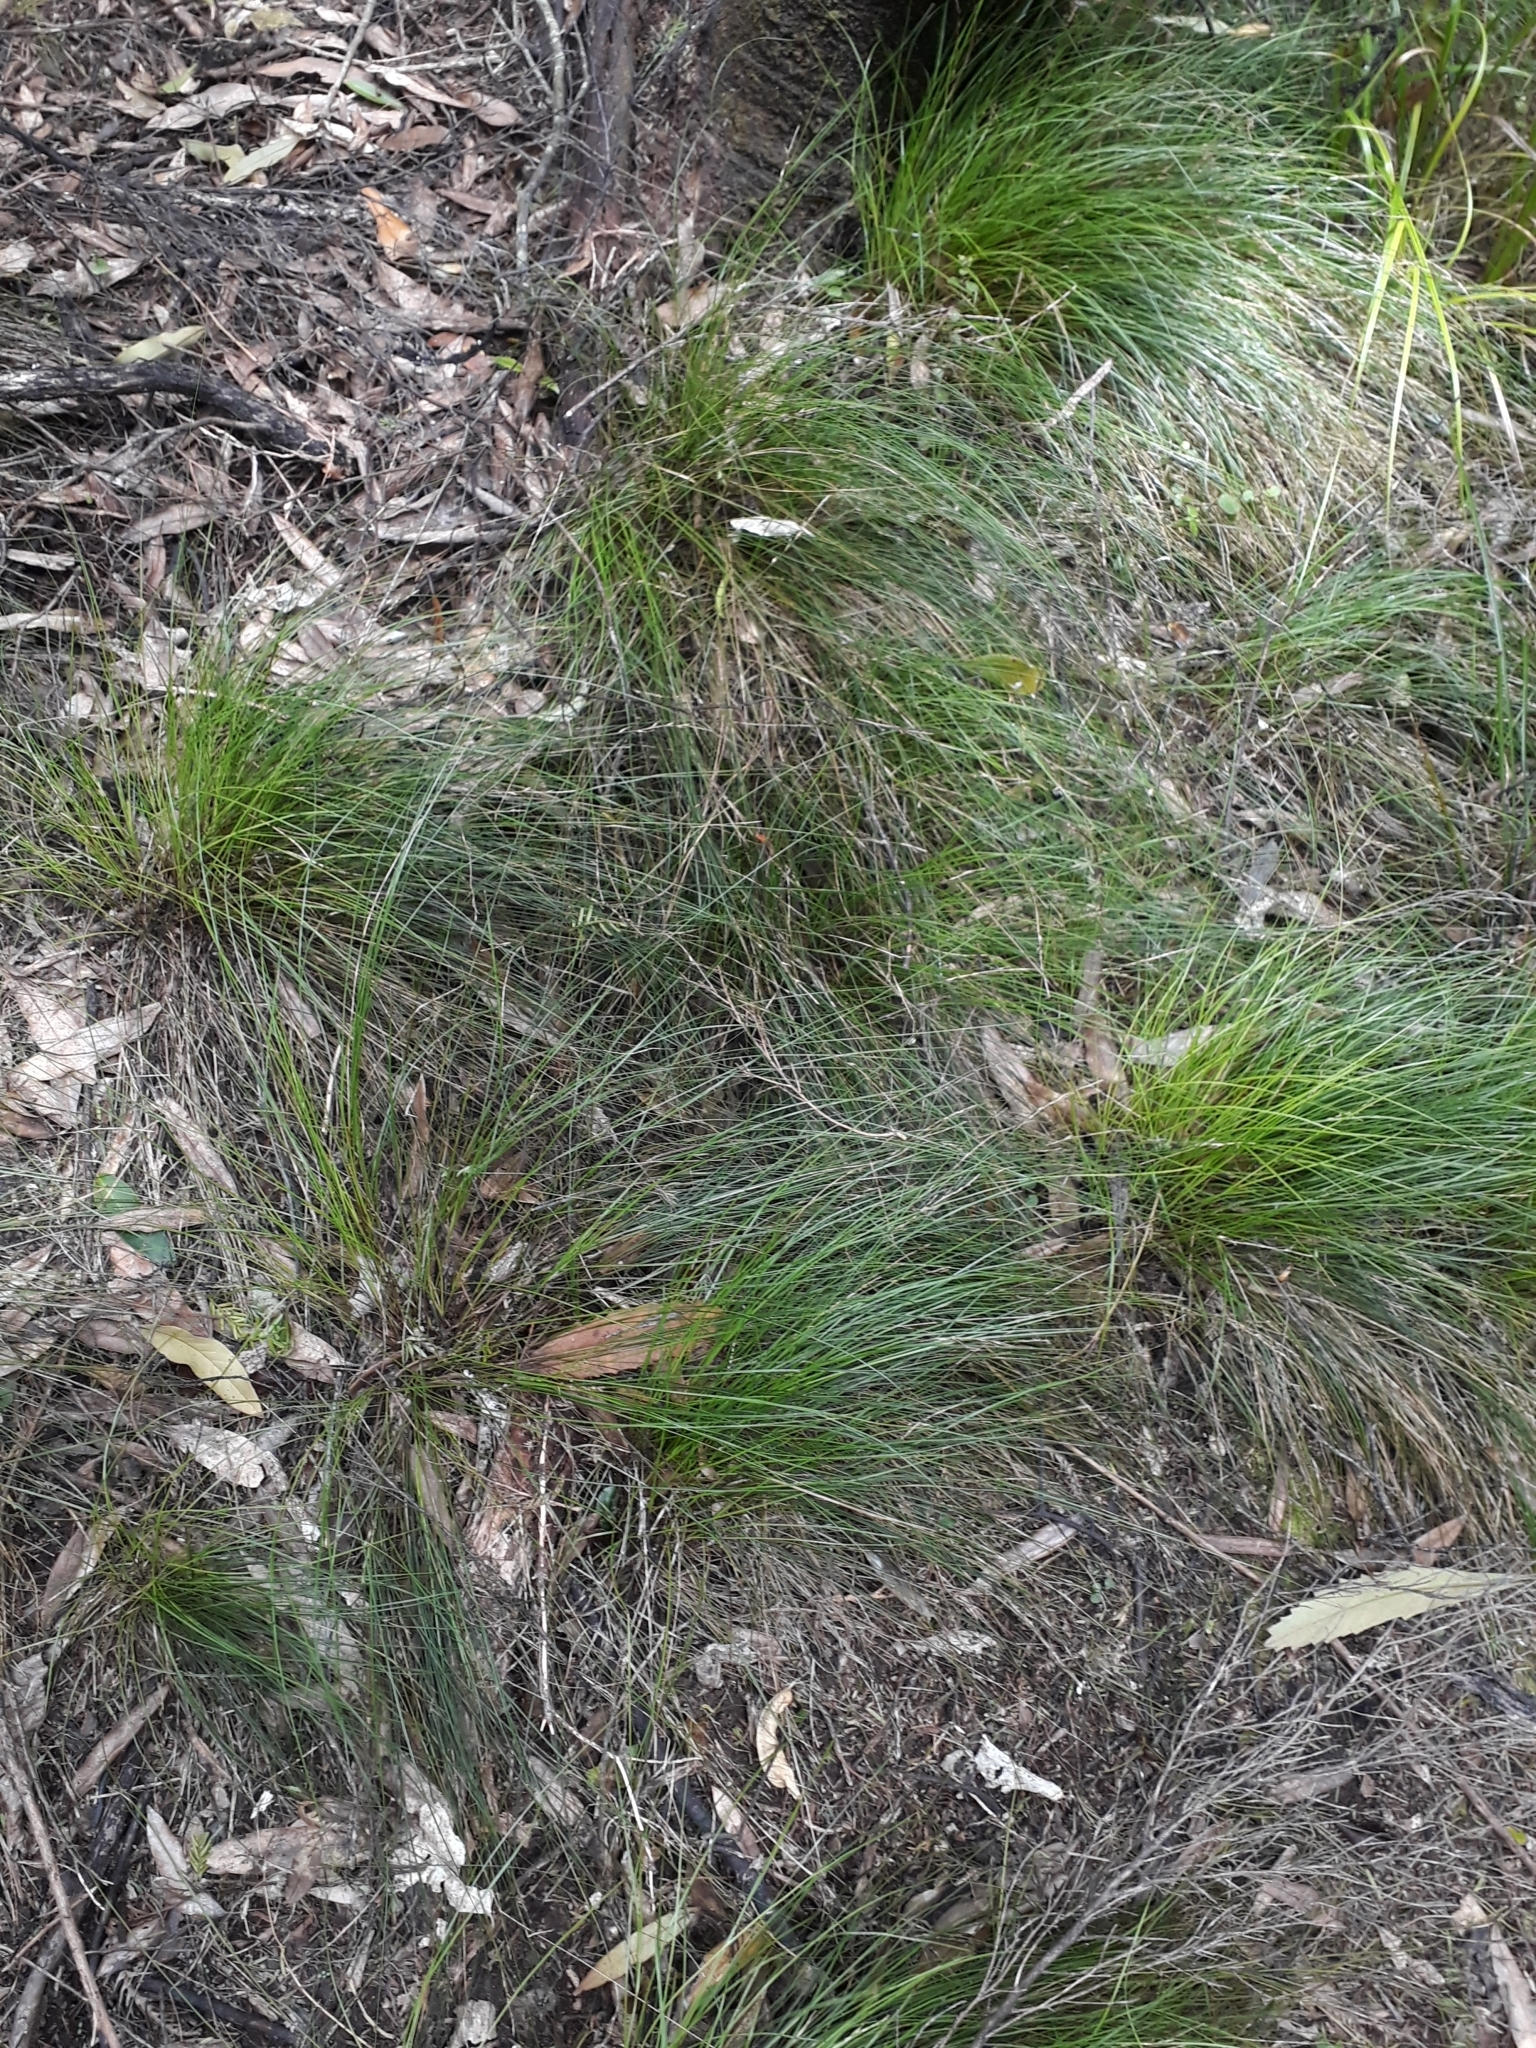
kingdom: Plantae
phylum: Tracheophyta
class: Liliopsida
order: Poales
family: Cyperaceae
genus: Carex
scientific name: Carex banksiana
